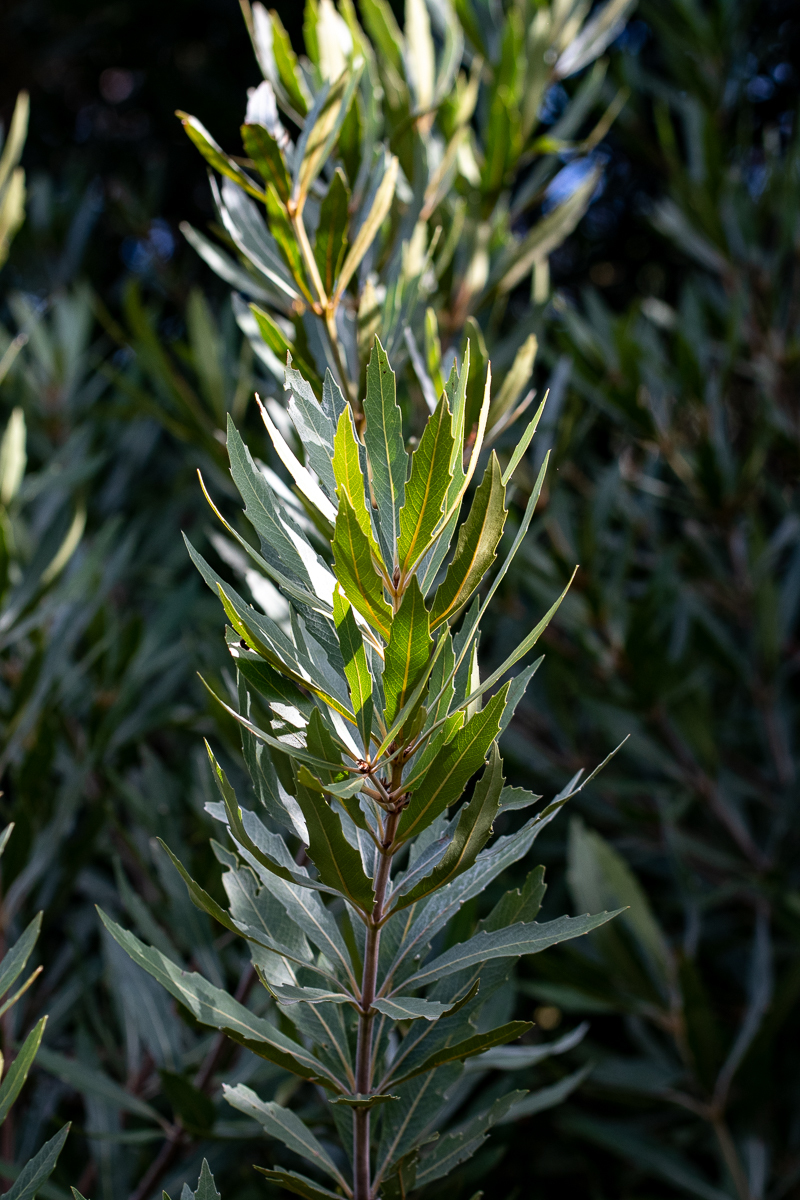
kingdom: Plantae
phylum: Tracheophyta
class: Magnoliopsida
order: Proteales
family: Proteaceae
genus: Brabejum
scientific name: Brabejum stellatifolium
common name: Wild almond
